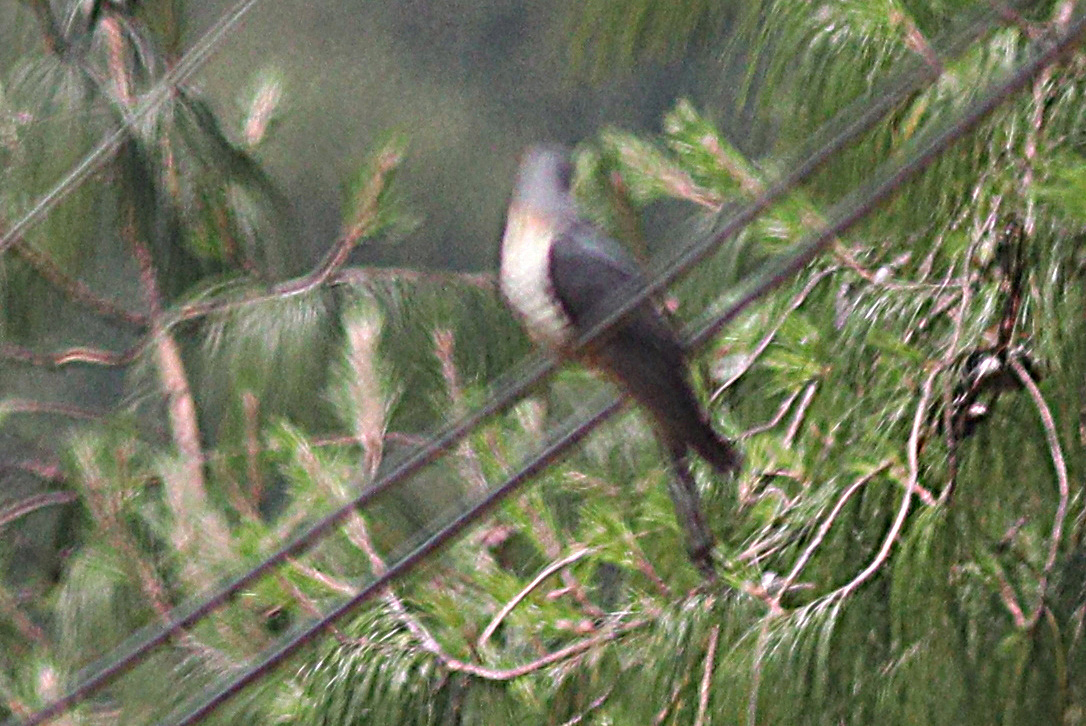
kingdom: Animalia
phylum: Chordata
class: Aves
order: Cuculiformes
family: Cuculidae
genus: Cuculus
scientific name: Cuculus solitarius
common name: Red-chested cuckoo
